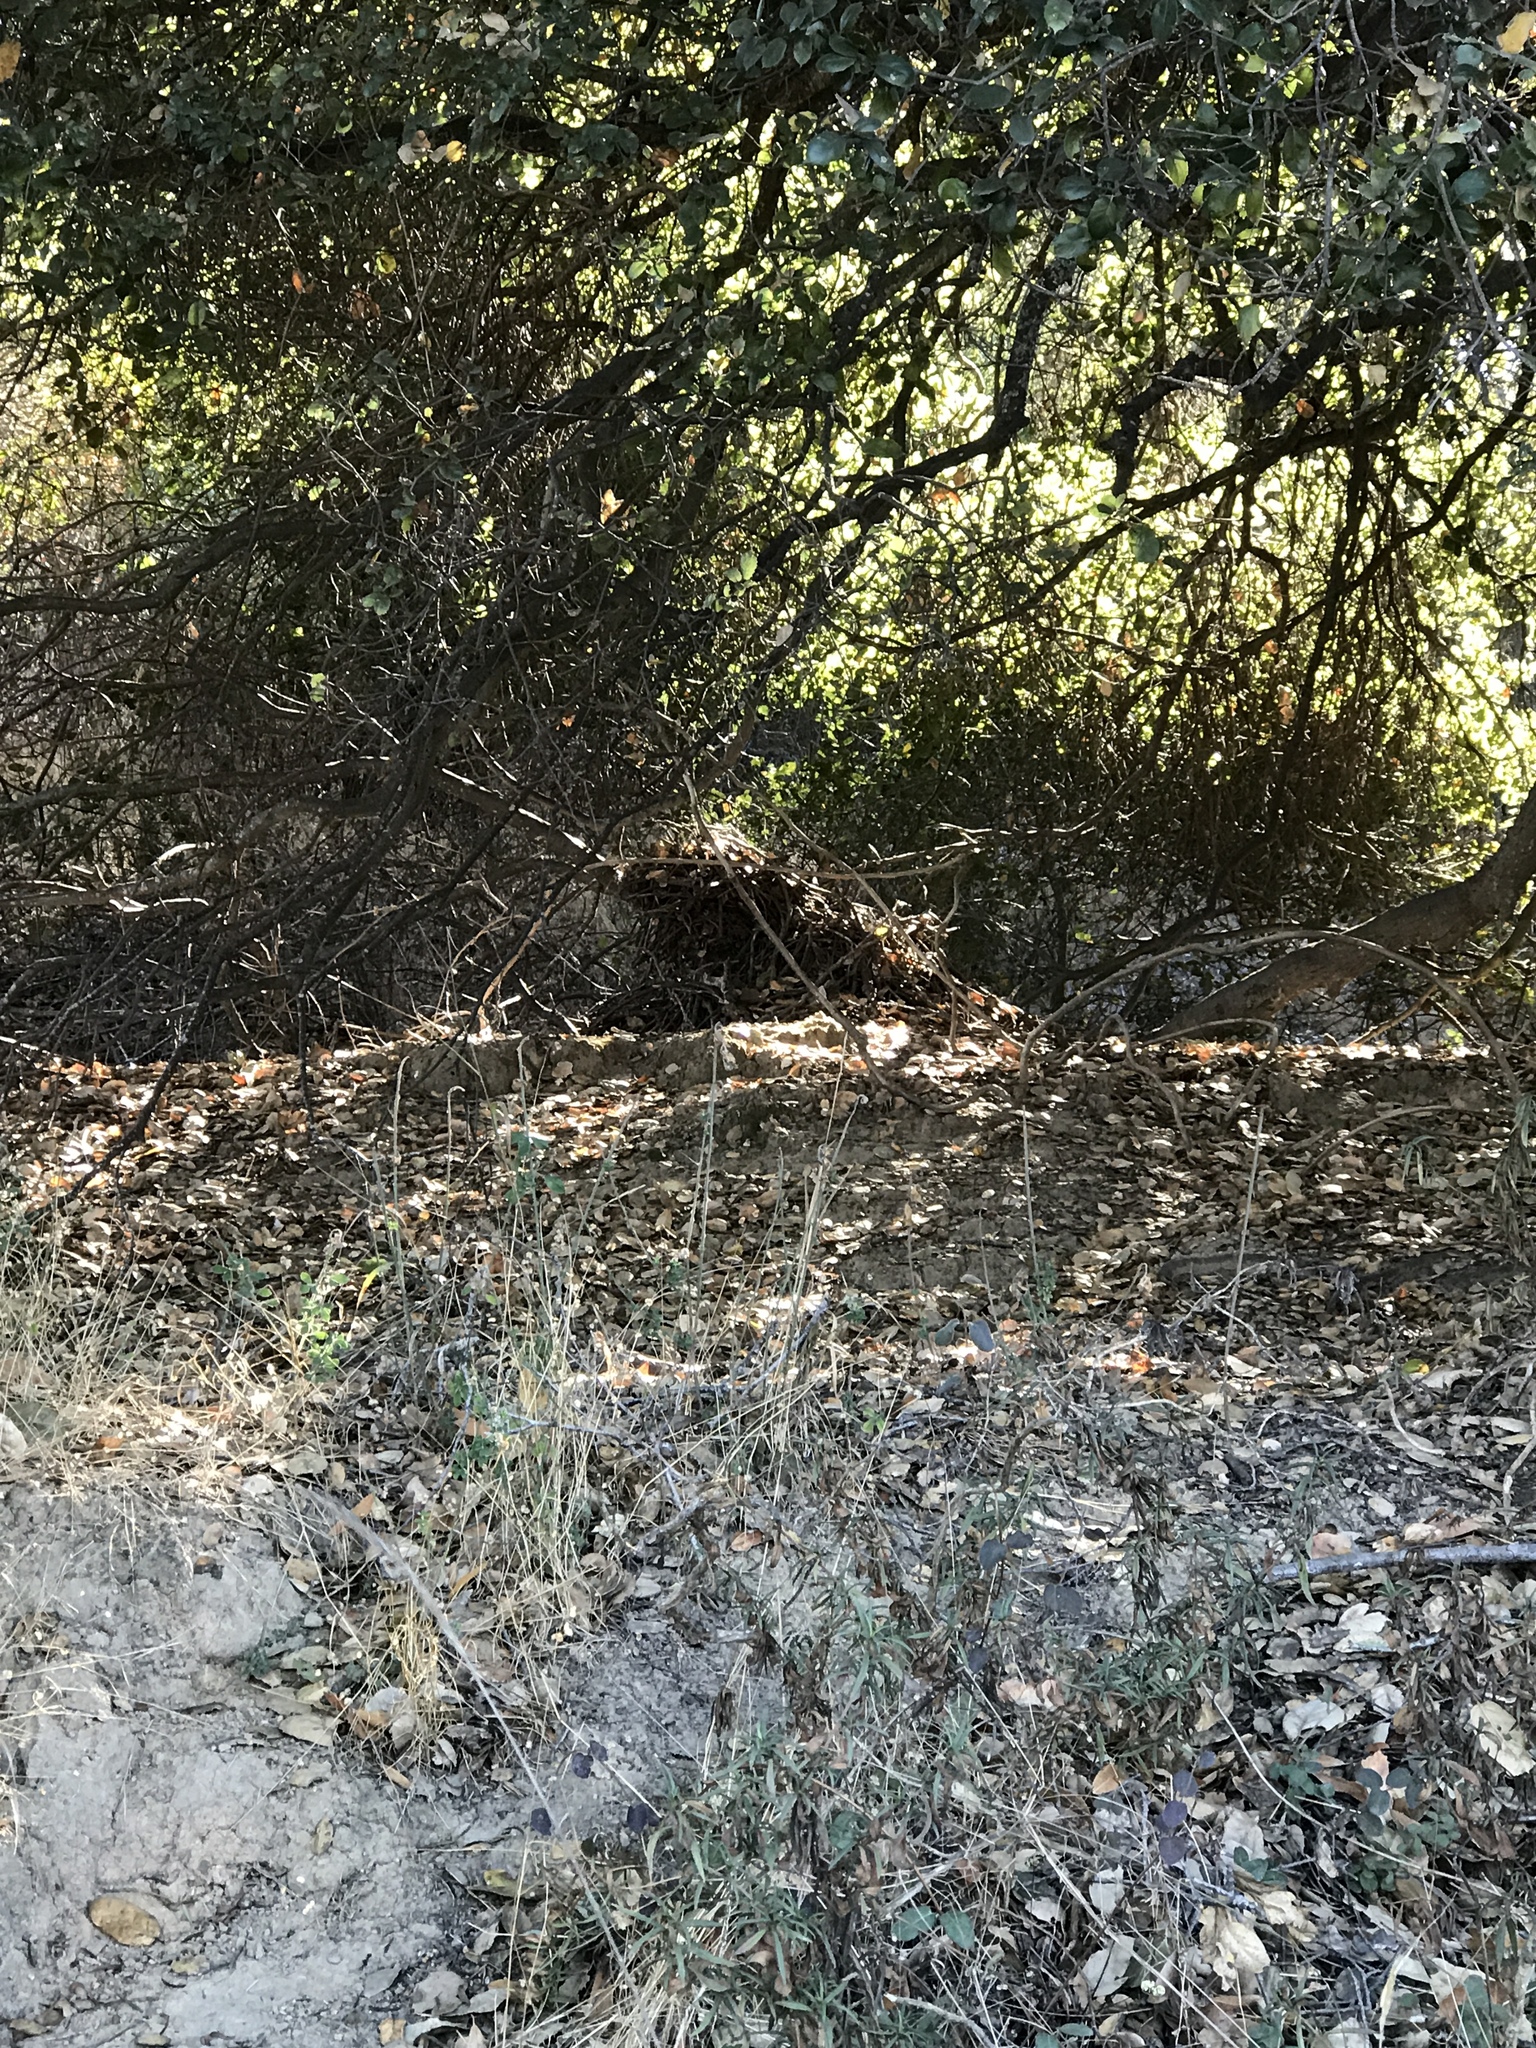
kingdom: Animalia
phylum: Chordata
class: Mammalia
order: Rodentia
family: Cricetidae
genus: Neotoma
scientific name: Neotoma fuscipes
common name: Dusky-footed woodrat
